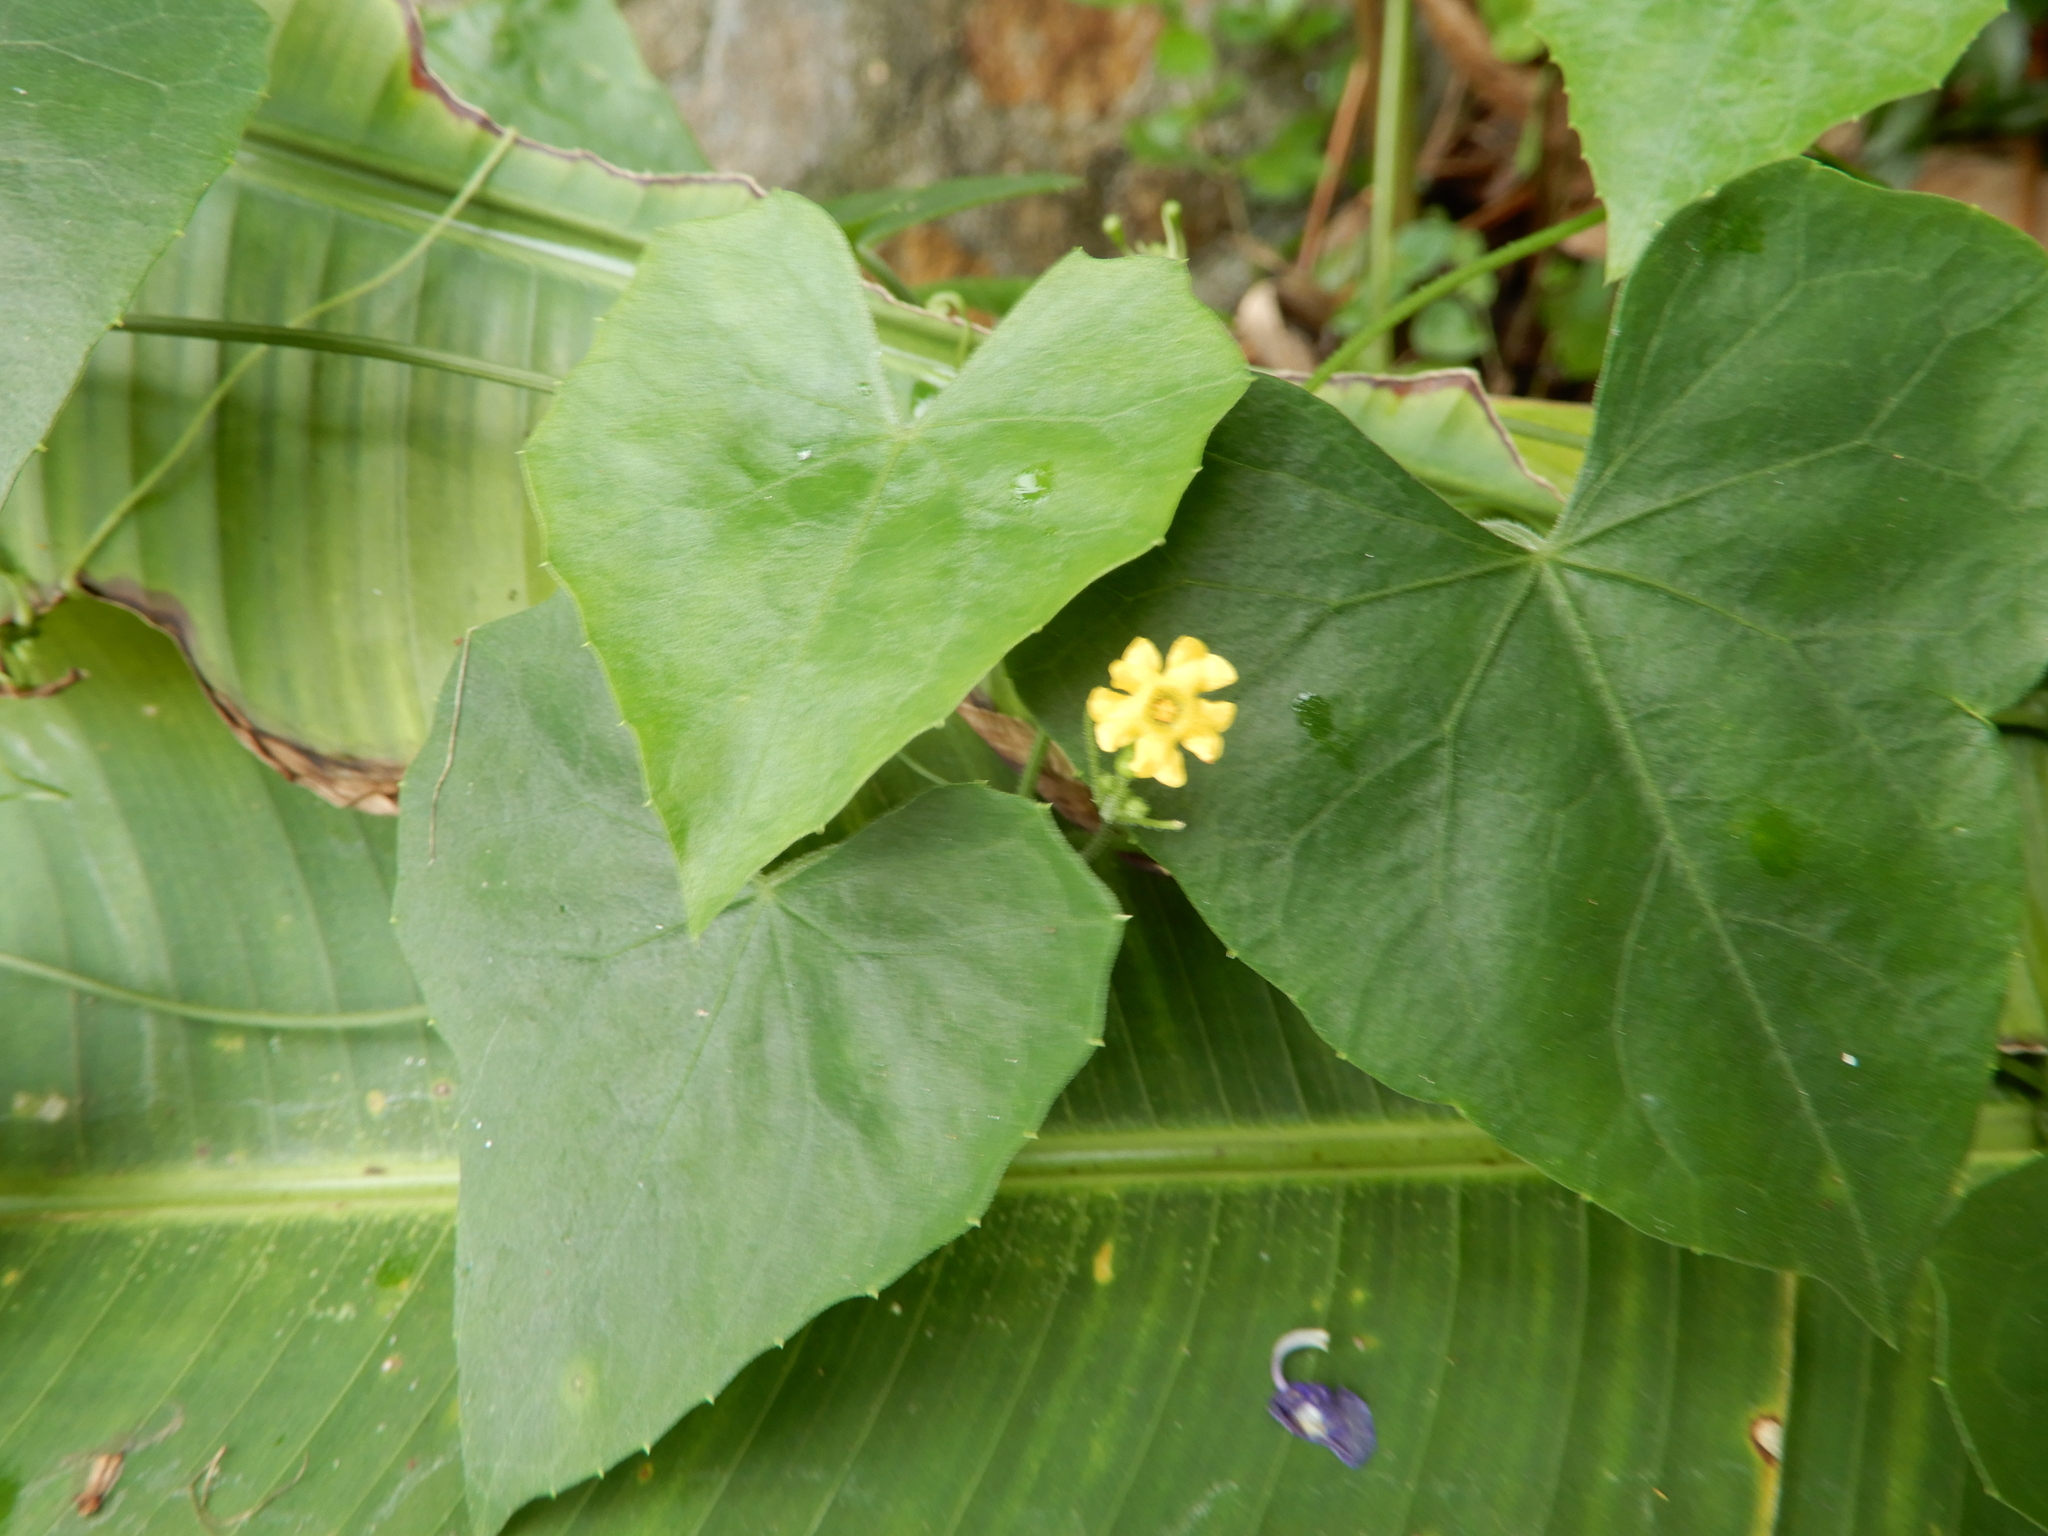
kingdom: Plantae
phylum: Tracheophyta
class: Magnoliopsida
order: Cucurbitales
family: Cucurbitaceae
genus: Melothria
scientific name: Melothria pendula
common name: Creeping-cucumber
